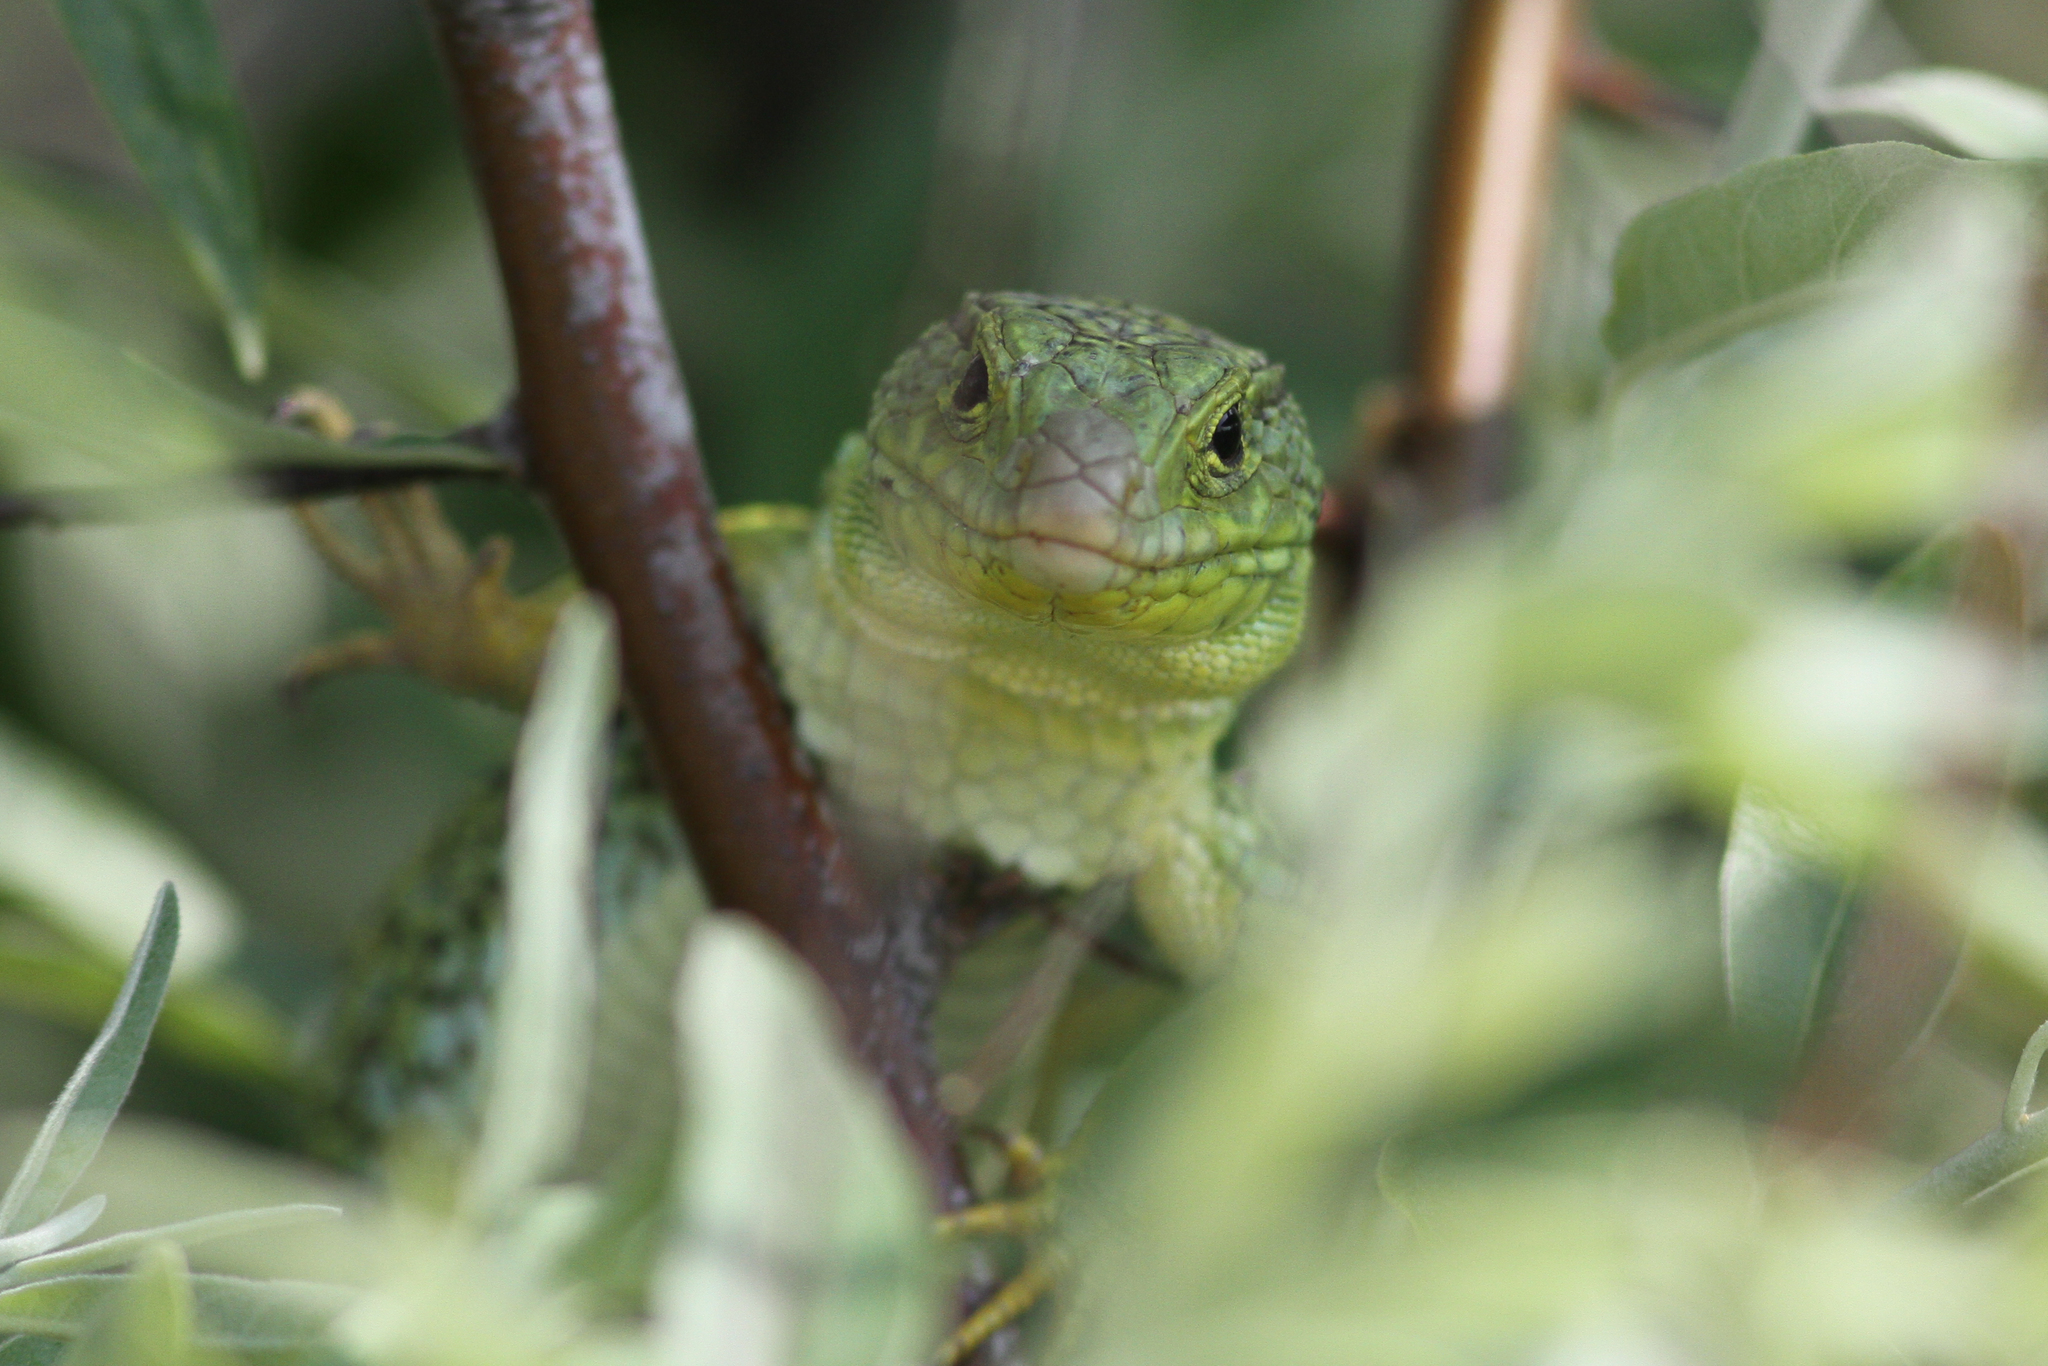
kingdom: Animalia
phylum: Chordata
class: Squamata
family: Lacertidae
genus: Timon
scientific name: Timon lepidus
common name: Ocellated lizard
